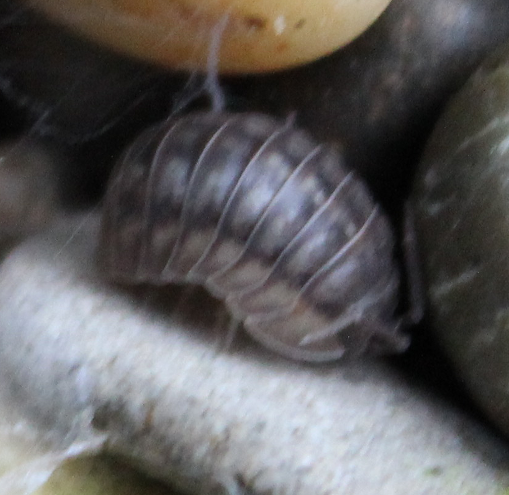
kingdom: Animalia
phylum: Arthropoda
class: Malacostraca
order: Isopoda
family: Armadillidiidae
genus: Armadillidium
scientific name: Armadillidium nasatum
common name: Isopod
